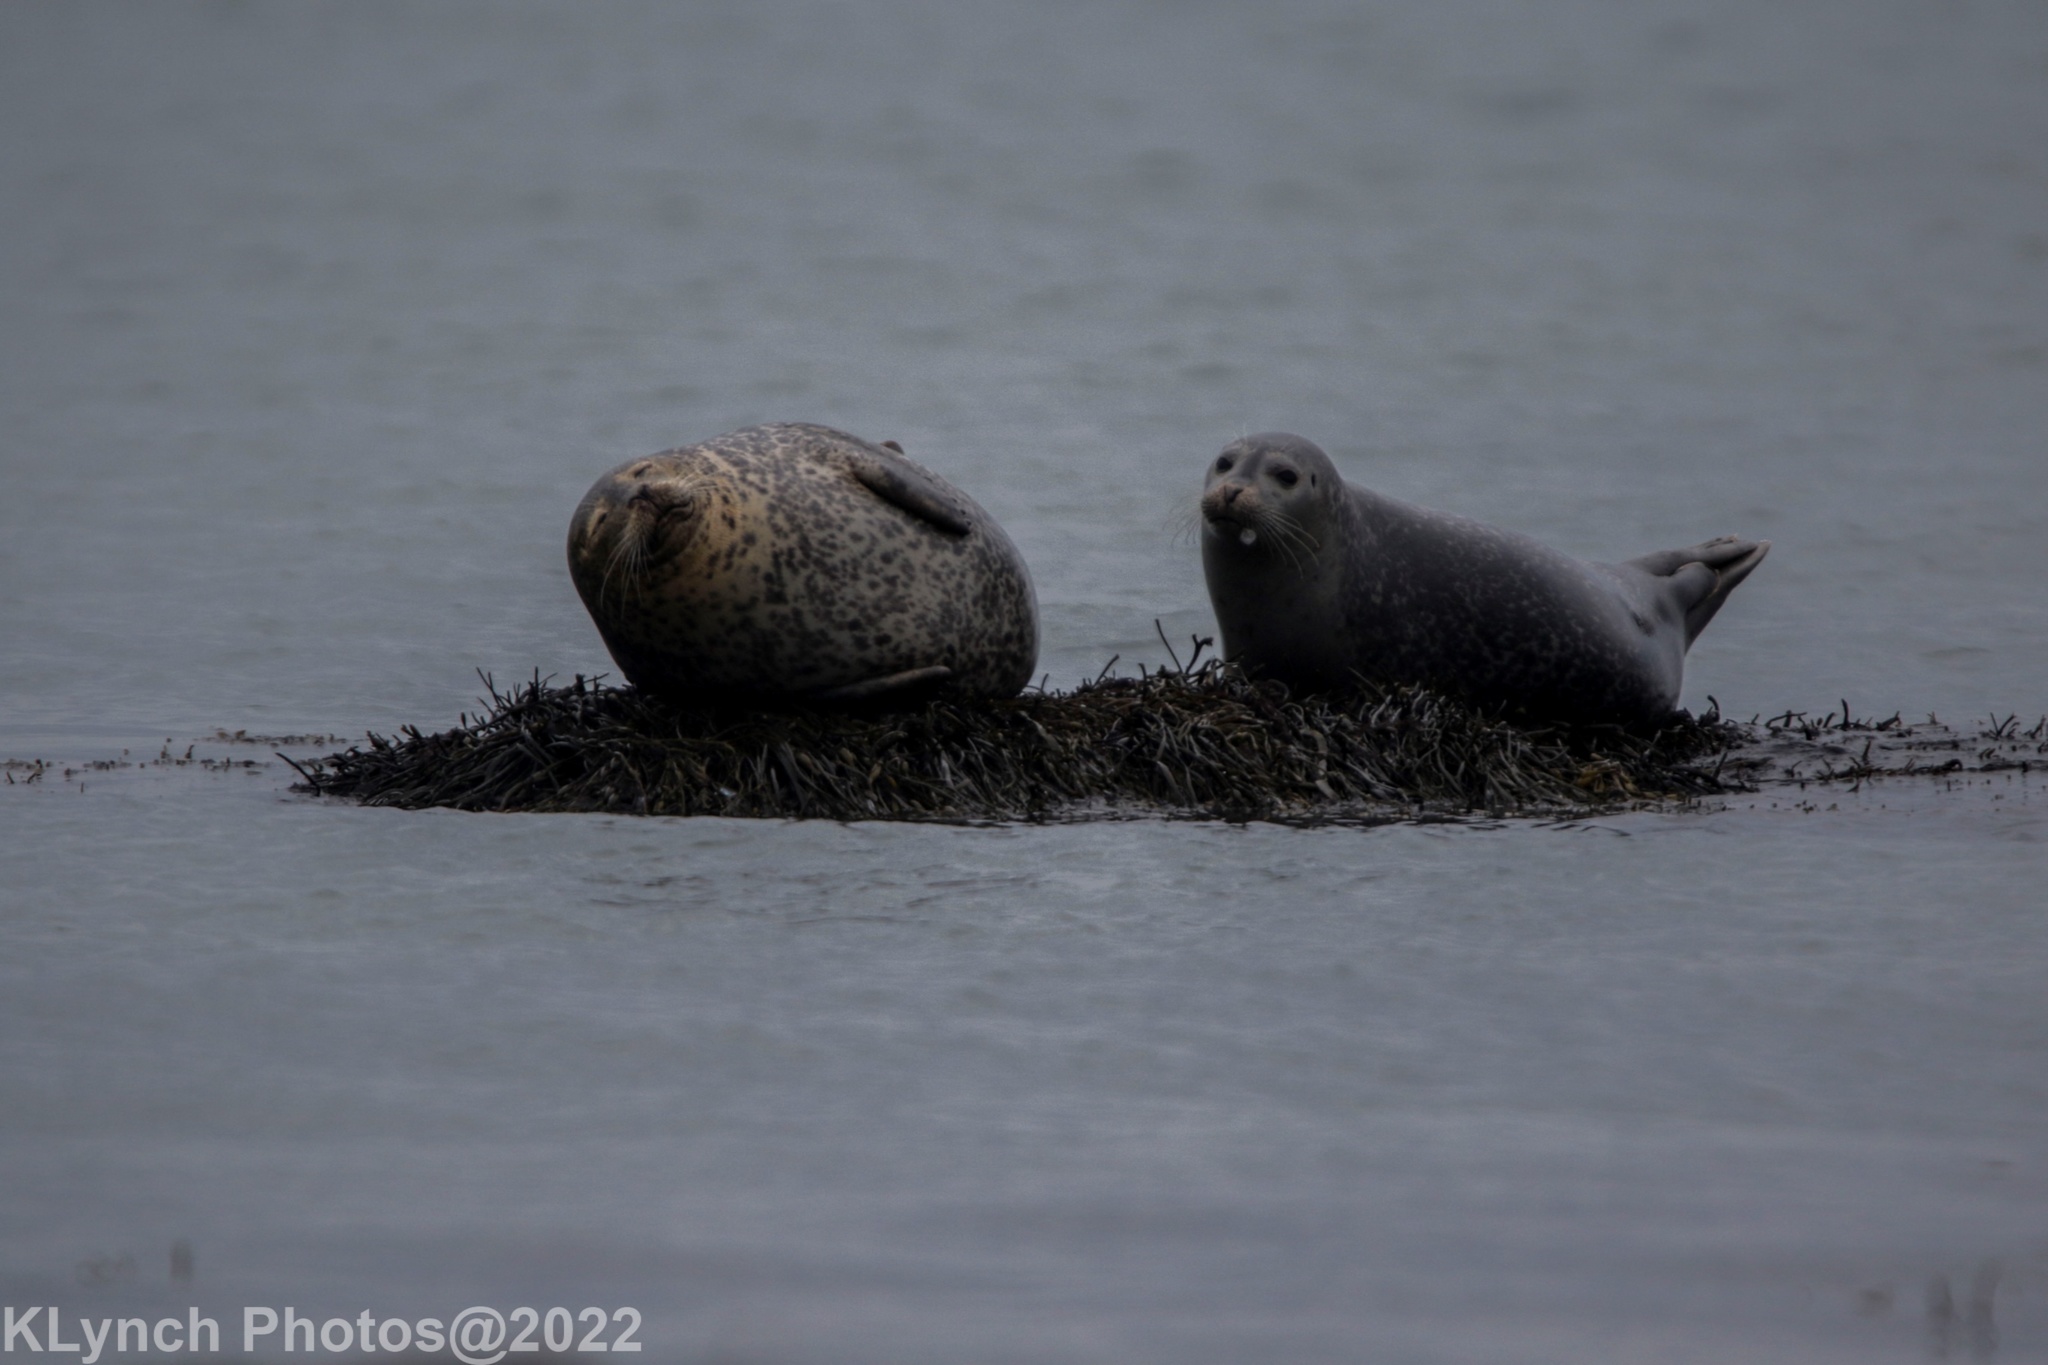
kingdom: Animalia
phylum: Chordata
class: Mammalia
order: Carnivora
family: Phocidae
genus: Phoca
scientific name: Phoca vitulina
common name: Harbor seal
